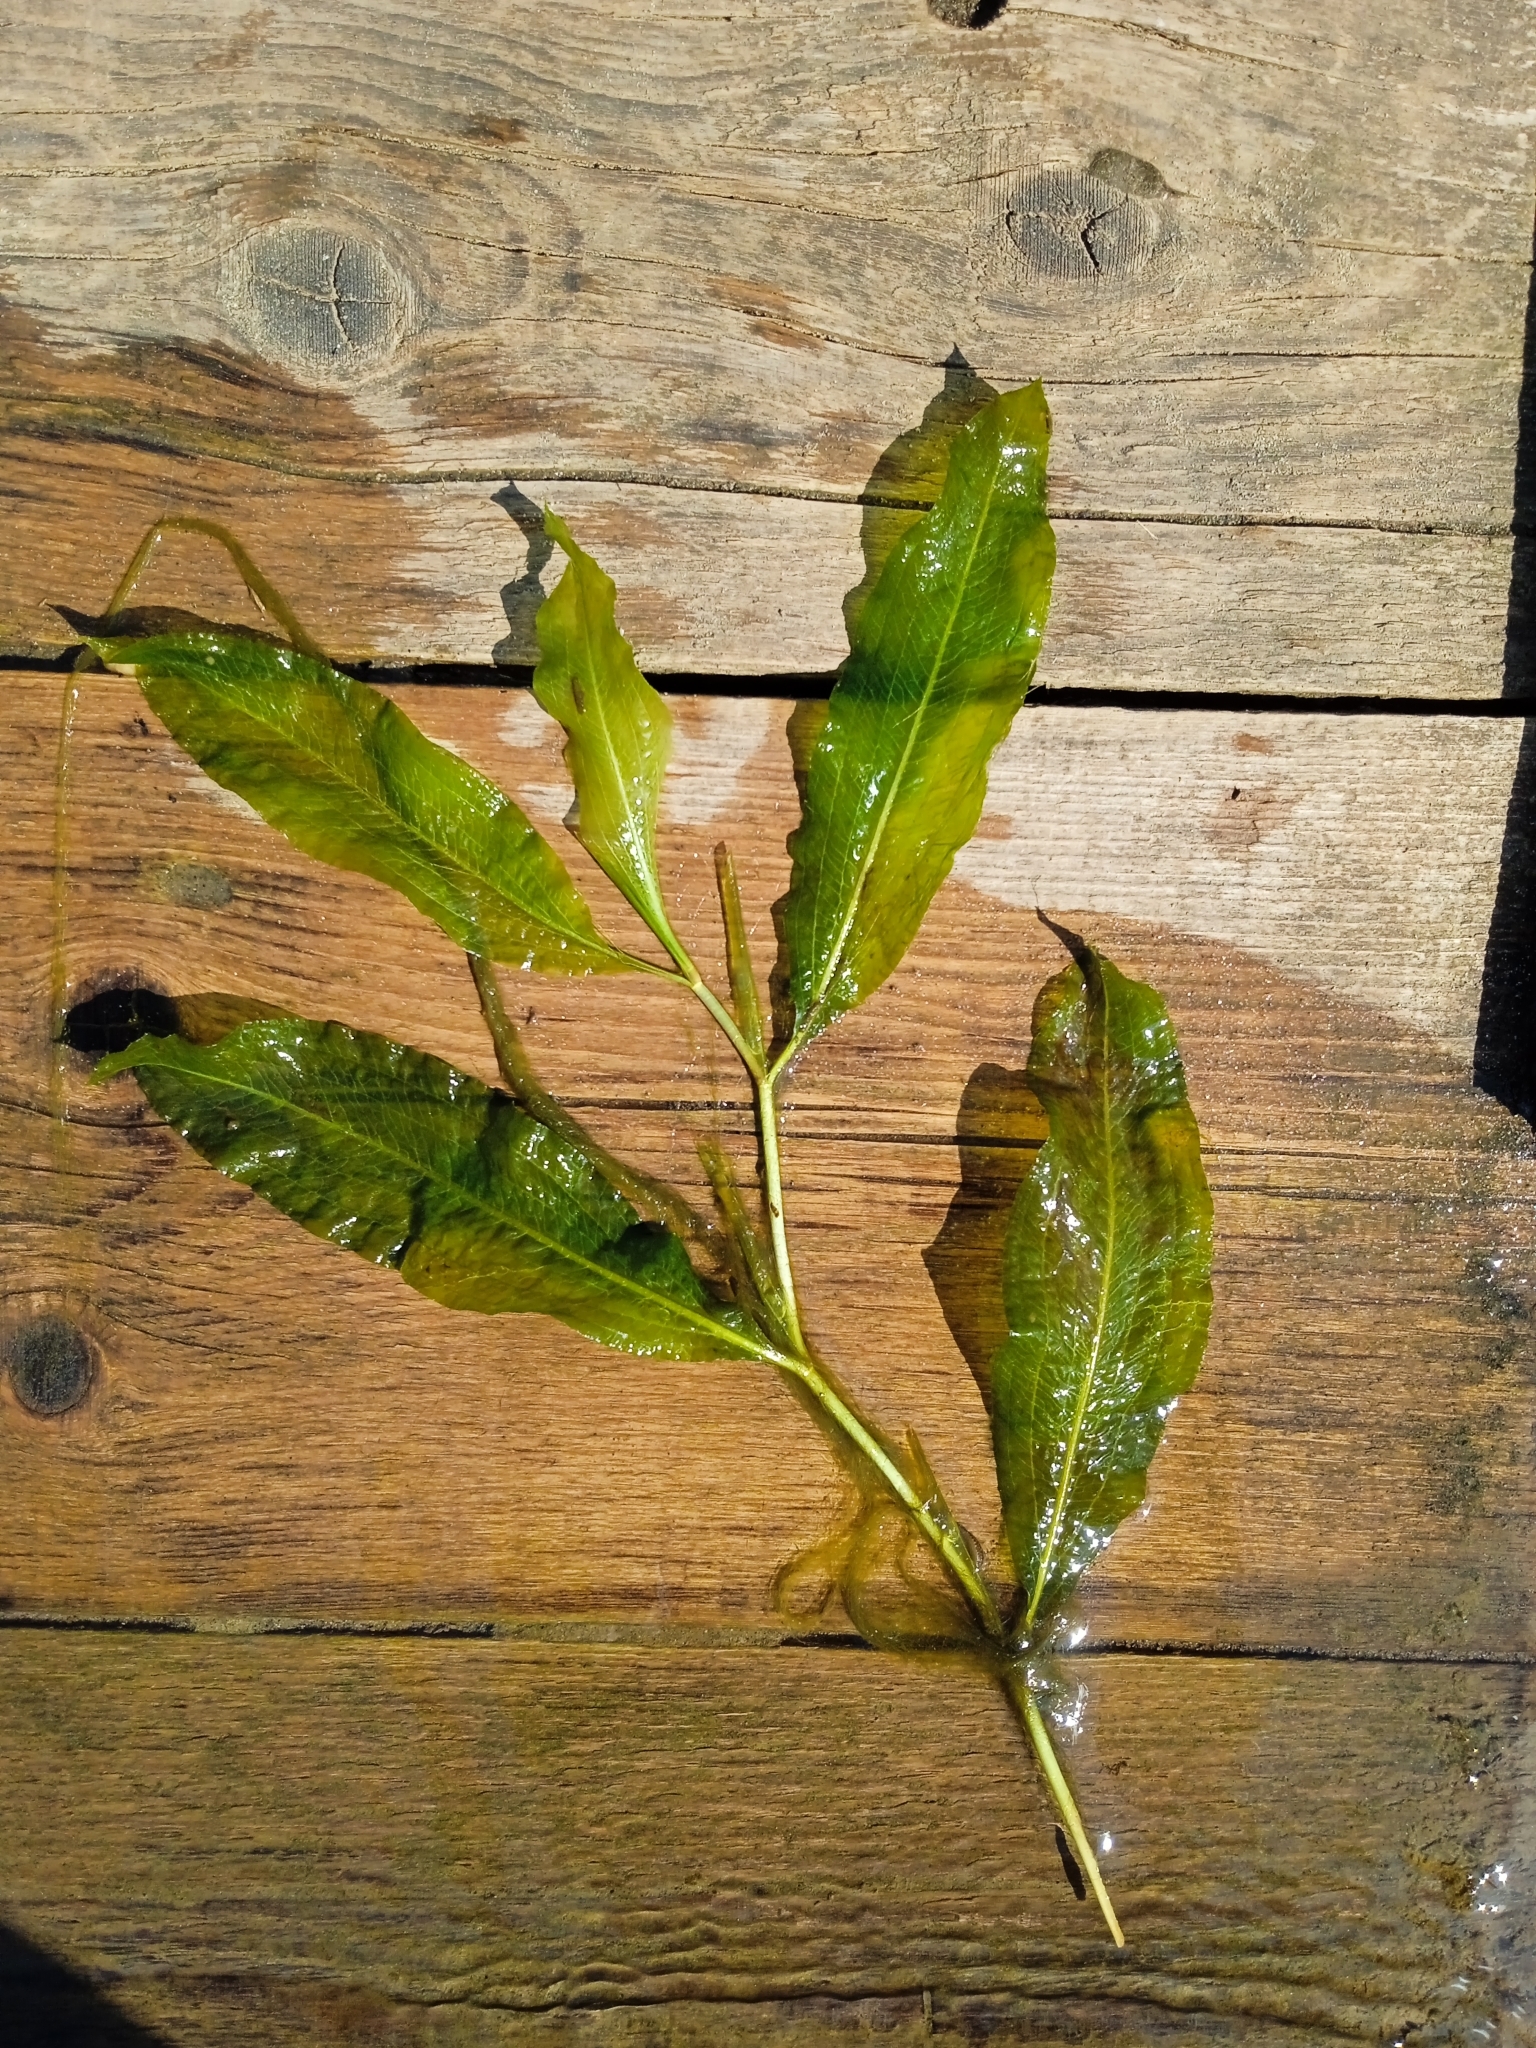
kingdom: Plantae
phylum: Tracheophyta
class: Liliopsida
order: Alismatales
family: Potamogetonaceae
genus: Potamogeton
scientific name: Potamogeton lucens
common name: Shining pondweed
